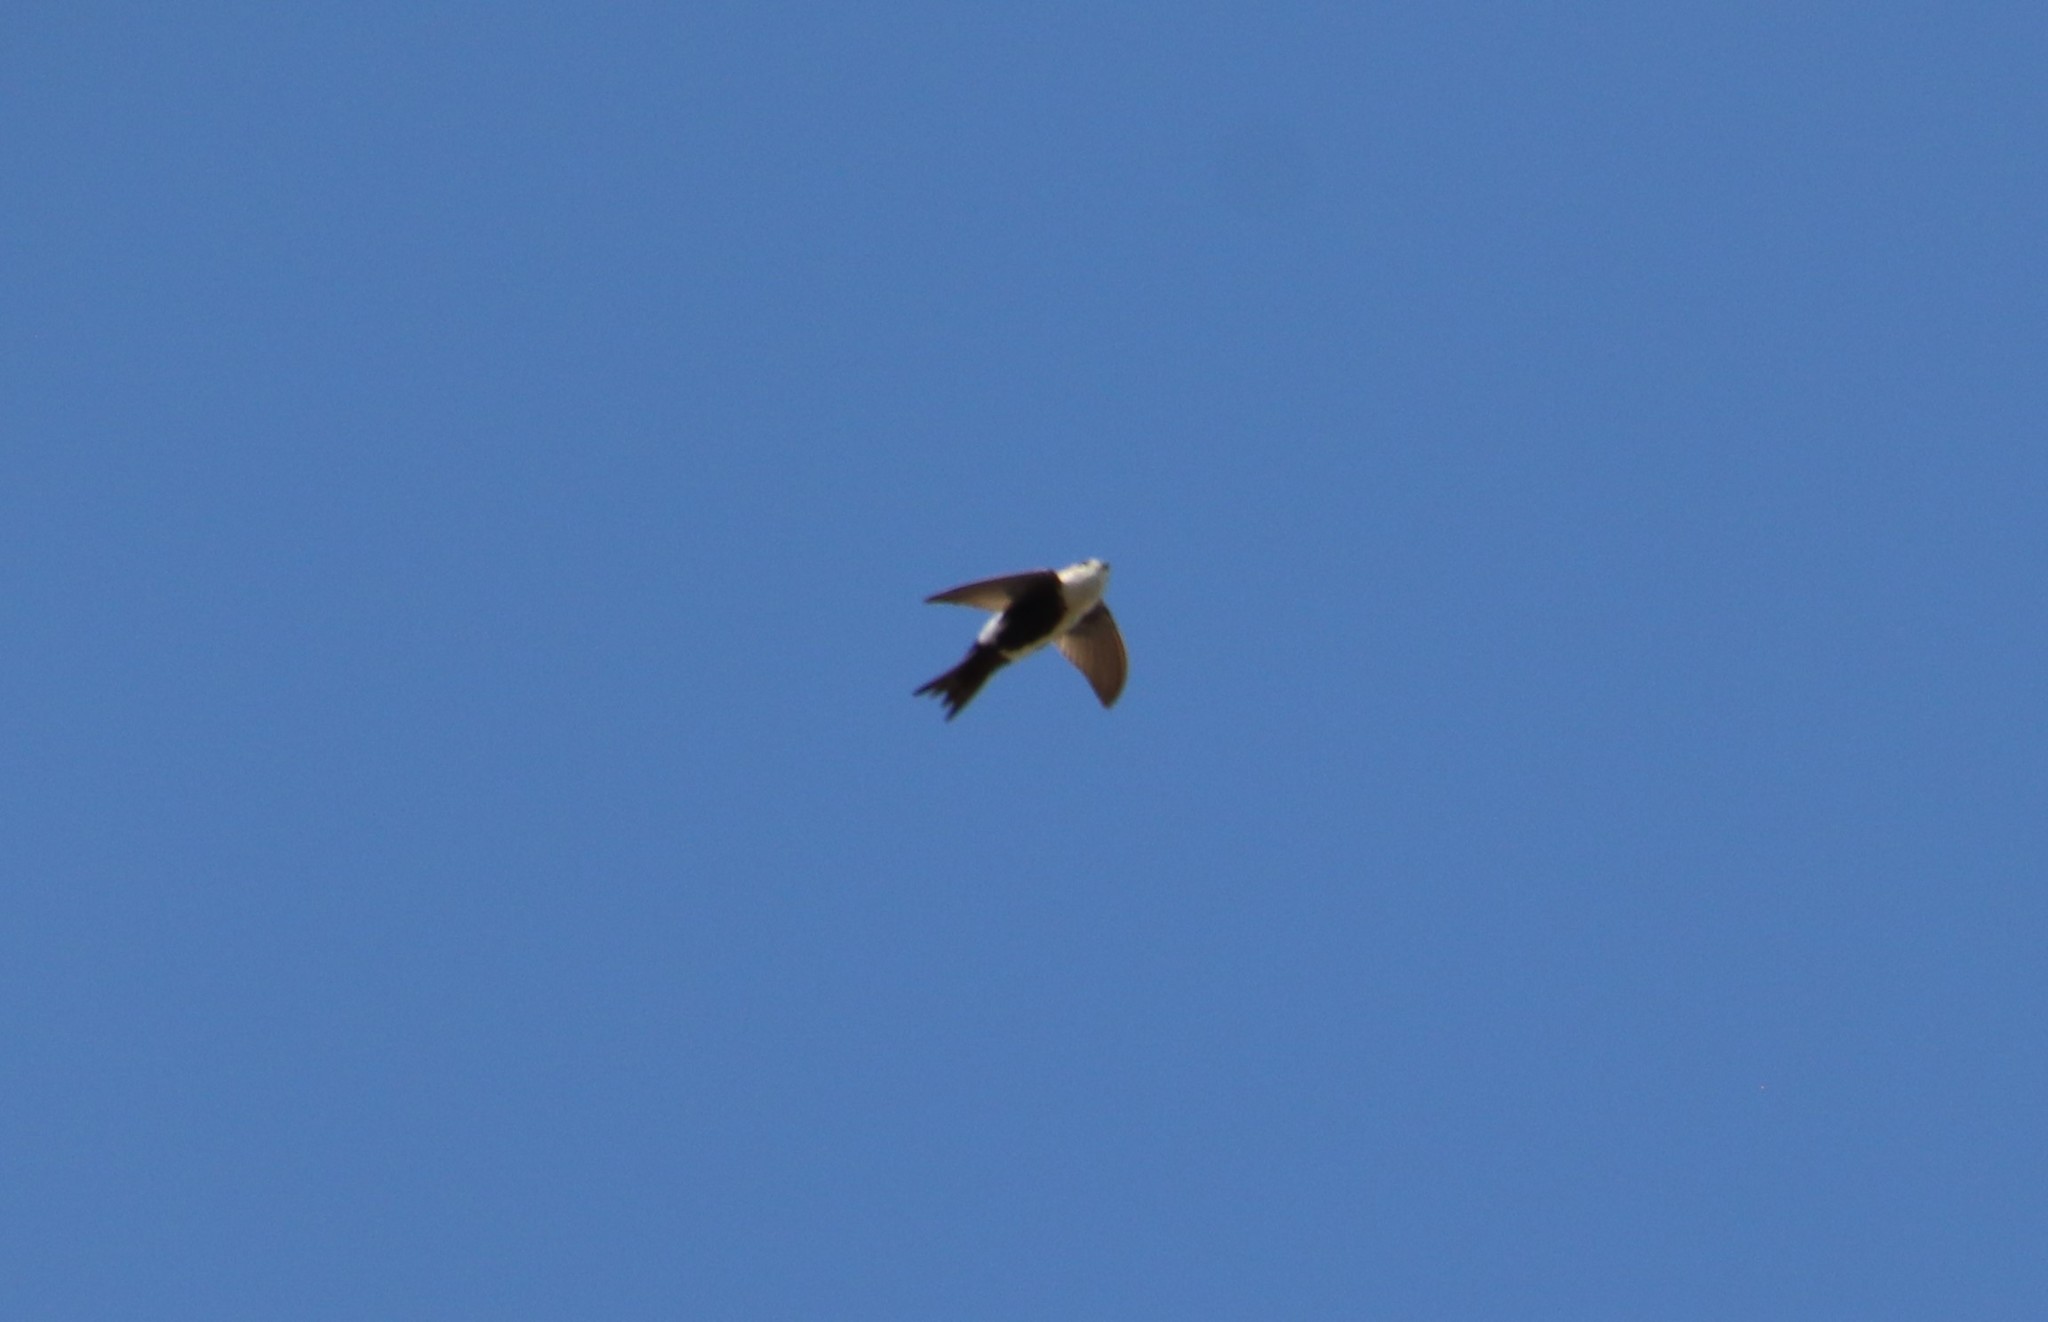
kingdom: Animalia
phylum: Chordata
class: Aves
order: Apodiformes
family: Apodidae
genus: Aeronautes
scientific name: Aeronautes saxatalis
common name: White-throated swift
